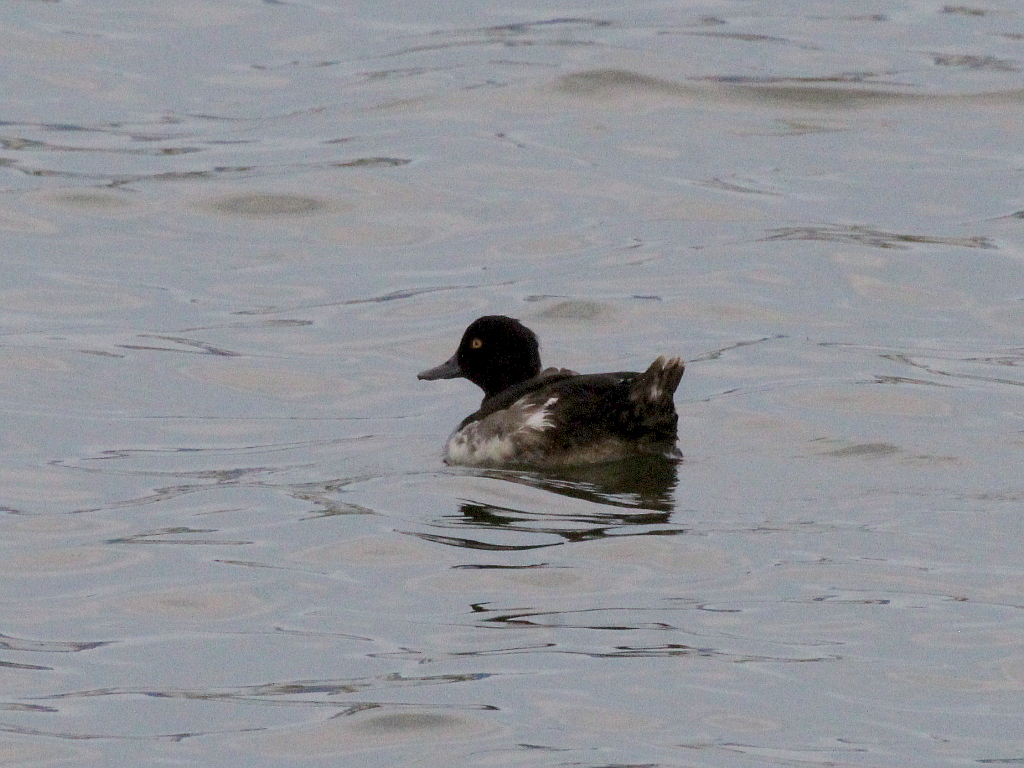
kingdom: Animalia
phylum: Chordata
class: Aves
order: Anseriformes
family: Anatidae
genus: Aythya
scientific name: Aythya fuligula
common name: Tufted duck
